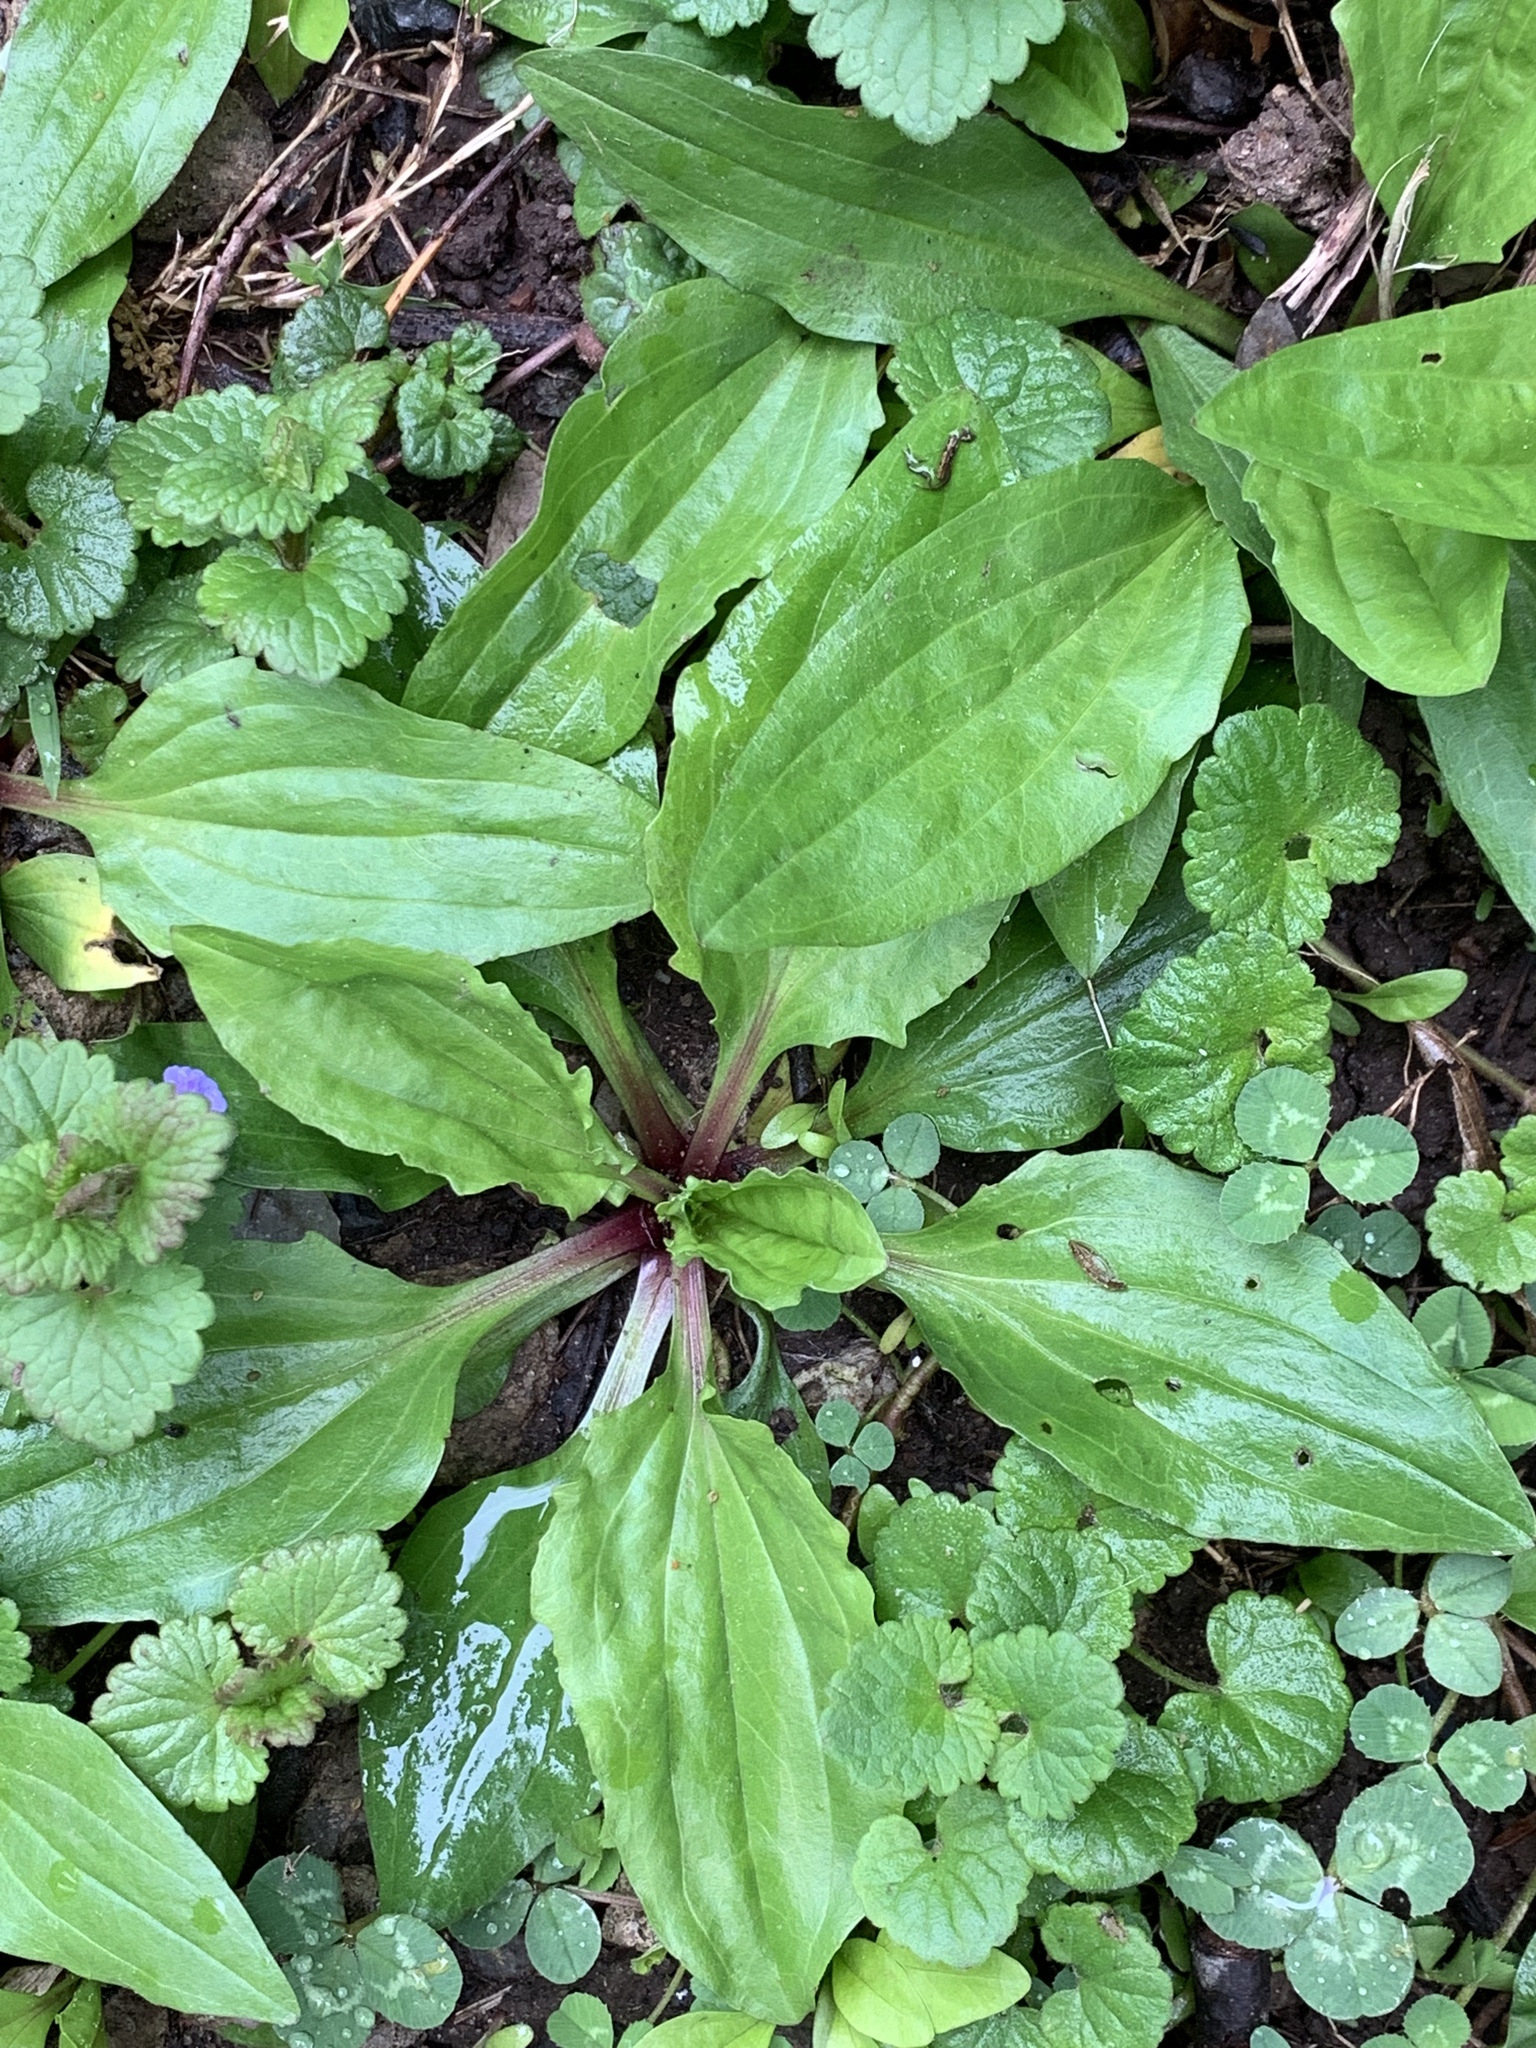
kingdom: Plantae
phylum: Tracheophyta
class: Magnoliopsida
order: Lamiales
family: Plantaginaceae
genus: Plantago
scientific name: Plantago rugelii
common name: American plantain
